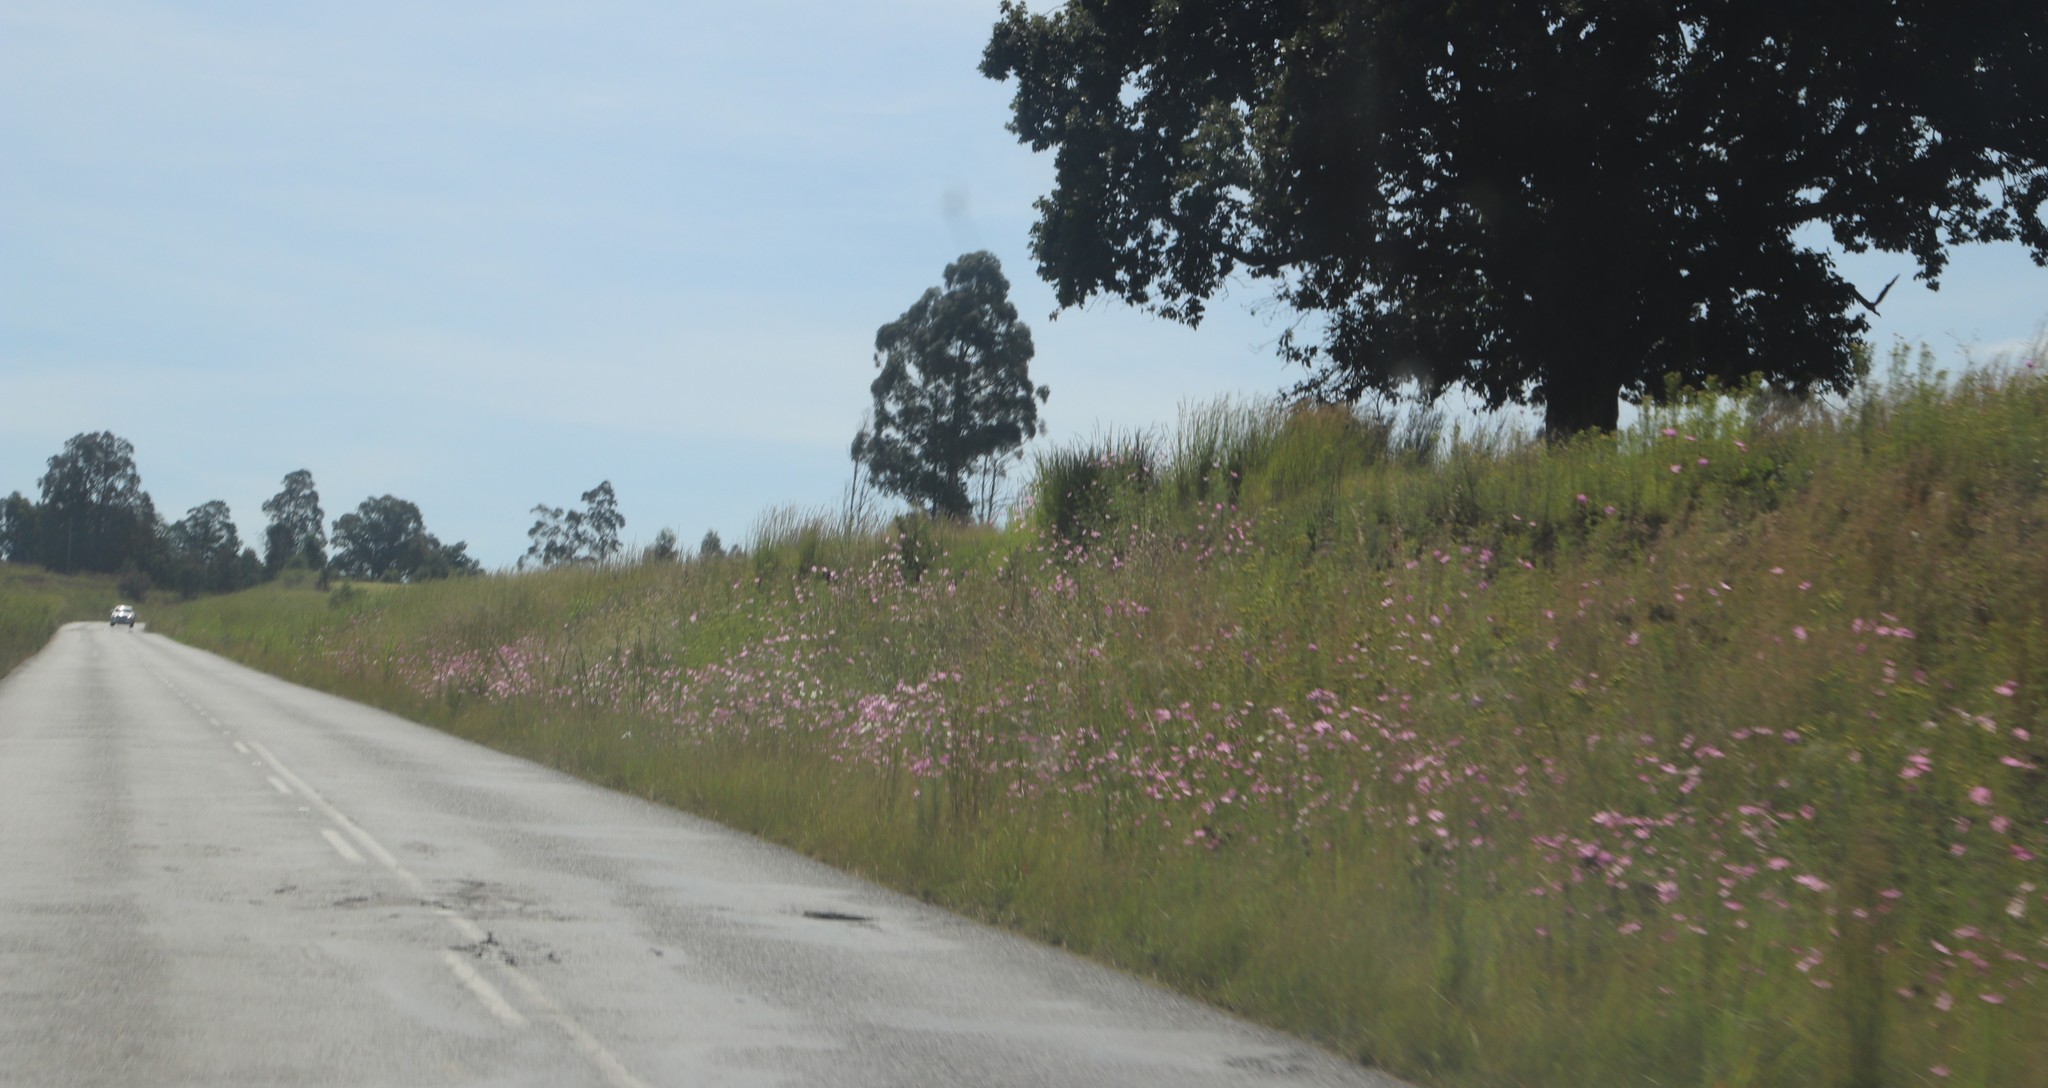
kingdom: Plantae
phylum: Tracheophyta
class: Magnoliopsida
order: Asterales
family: Asteraceae
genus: Cosmos
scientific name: Cosmos bipinnatus
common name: Garden cosmos
